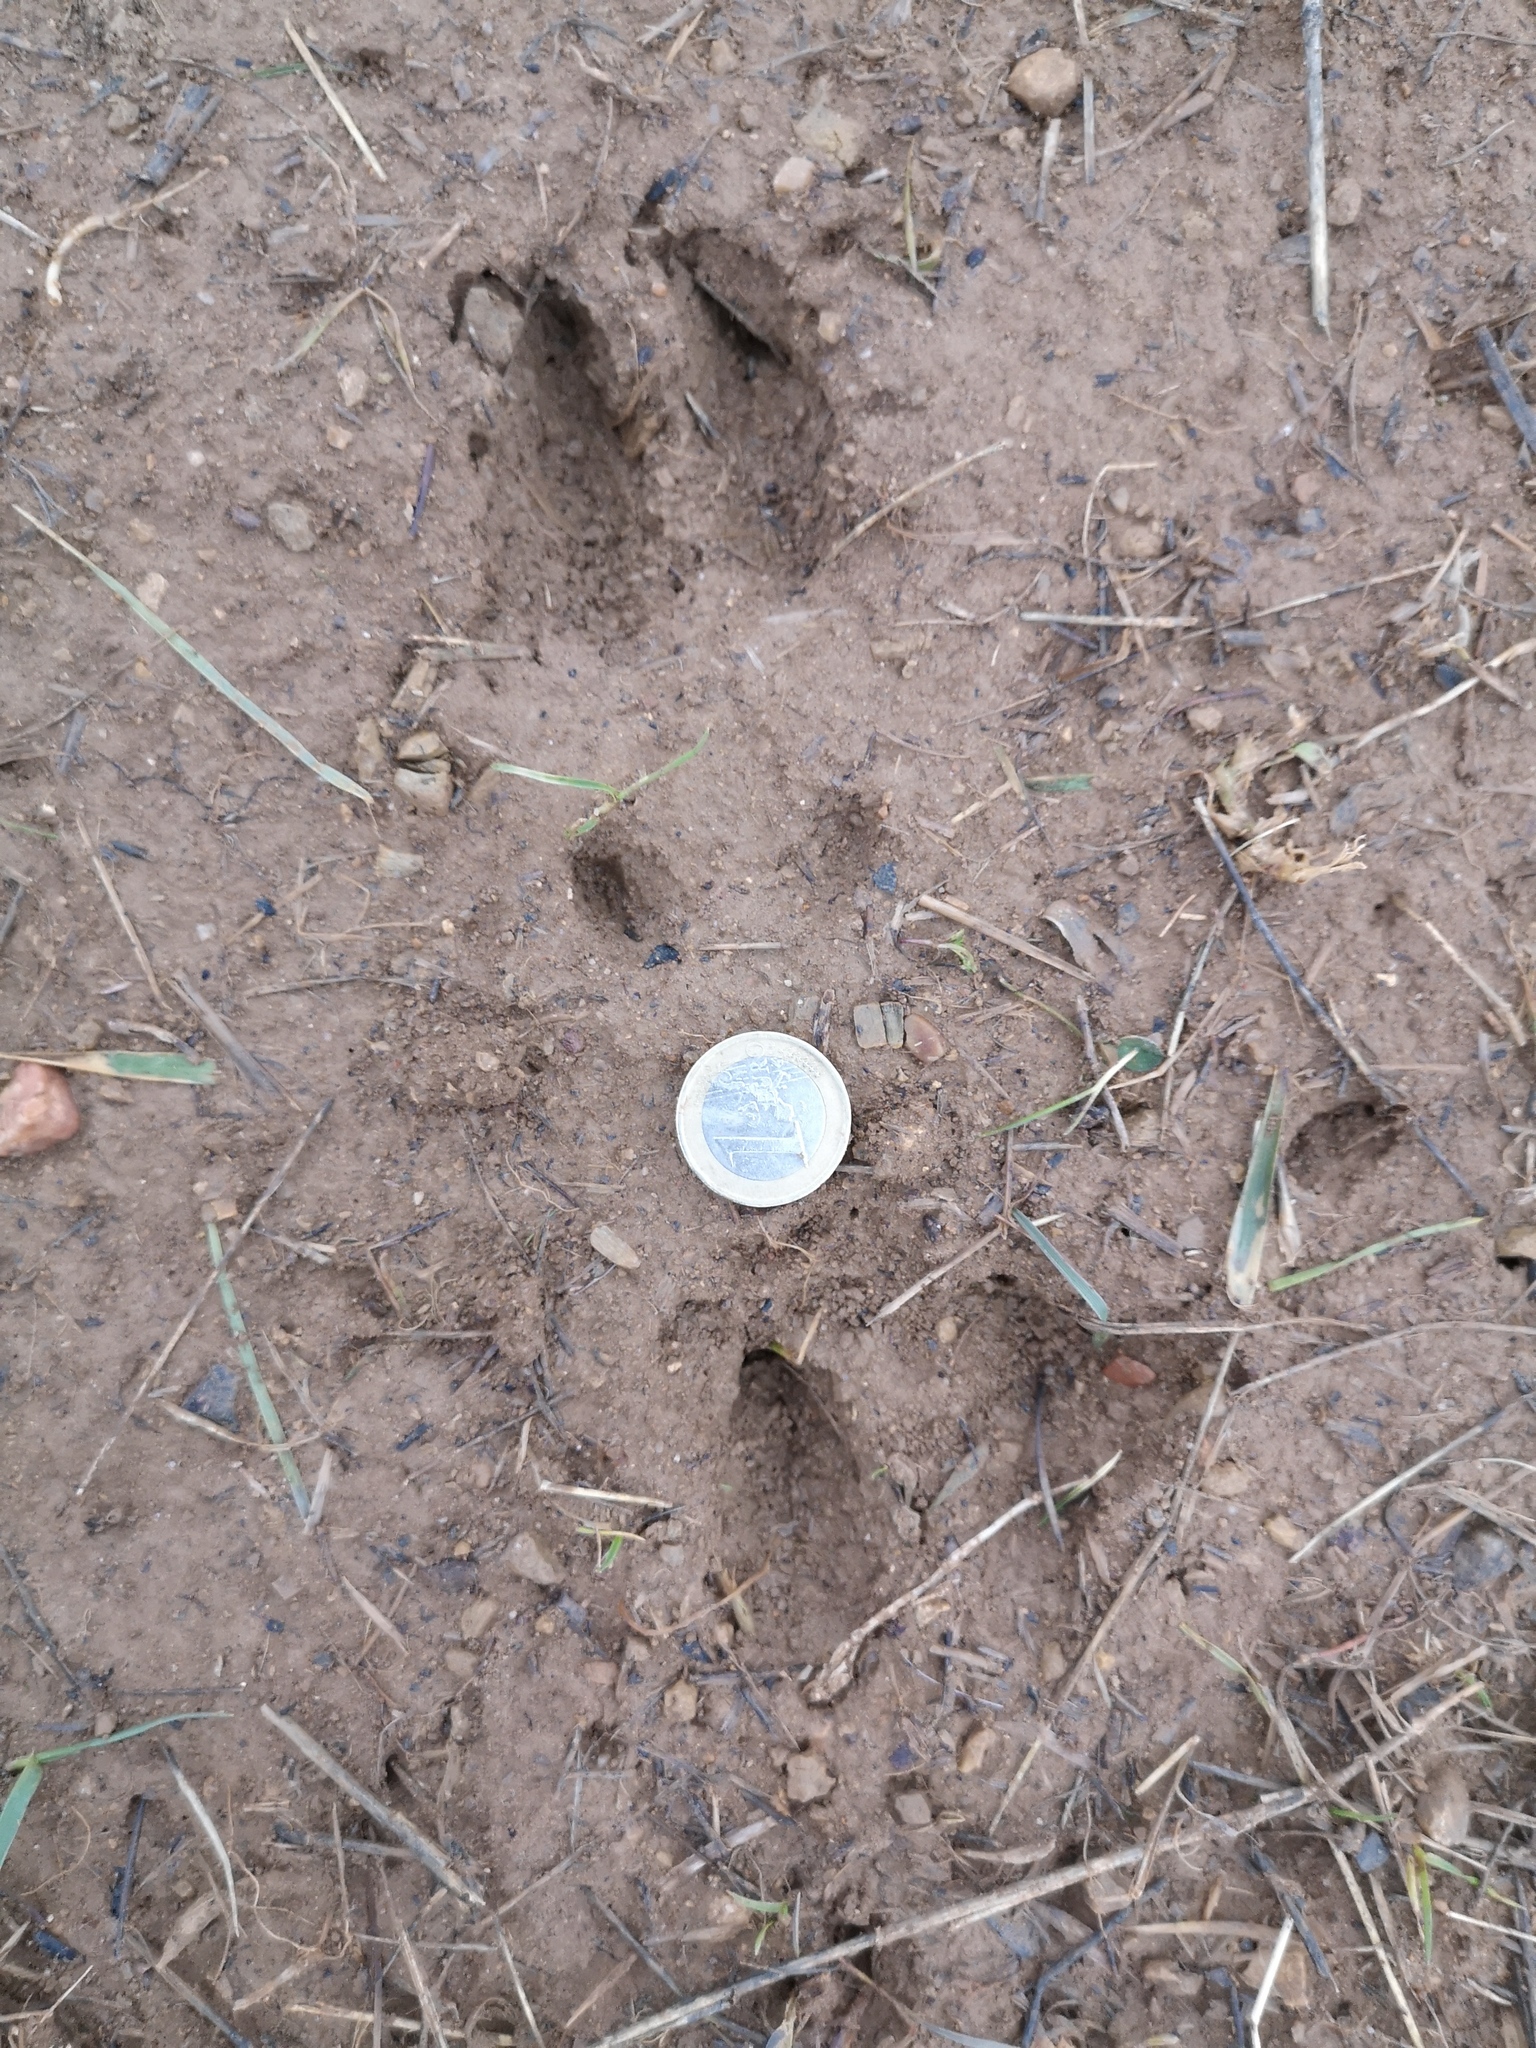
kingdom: Animalia
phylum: Chordata
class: Mammalia
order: Artiodactyla
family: Cervidae
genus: Capreolus
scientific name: Capreolus capreolus
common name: Western roe deer
